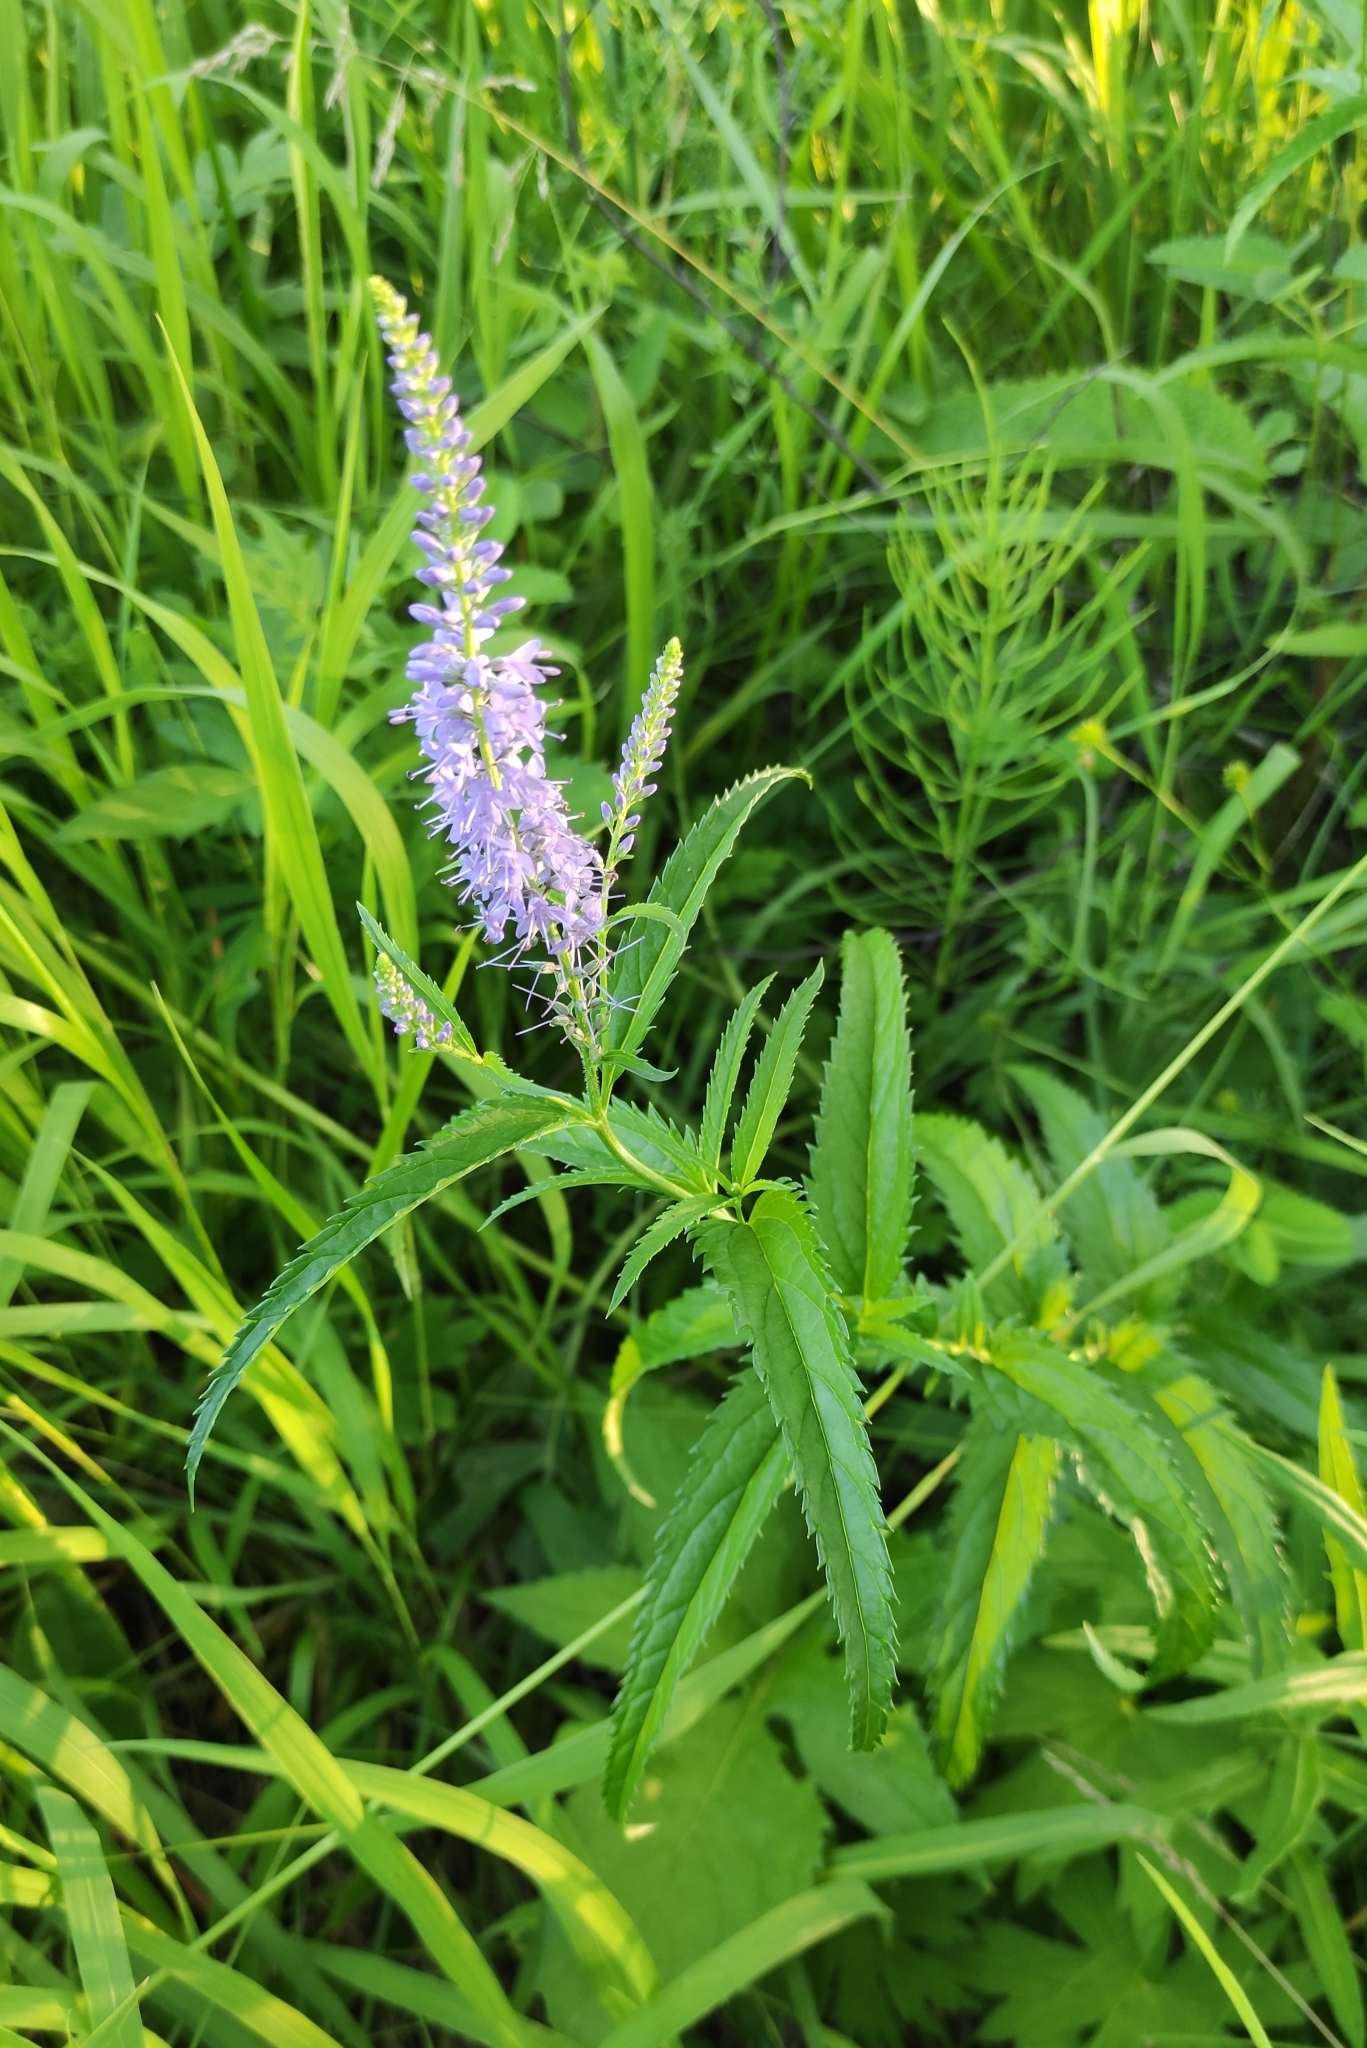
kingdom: Plantae
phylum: Tracheophyta
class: Magnoliopsida
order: Lamiales
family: Plantaginaceae
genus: Veronica
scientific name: Veronica longifolia
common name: Garden speedwell
